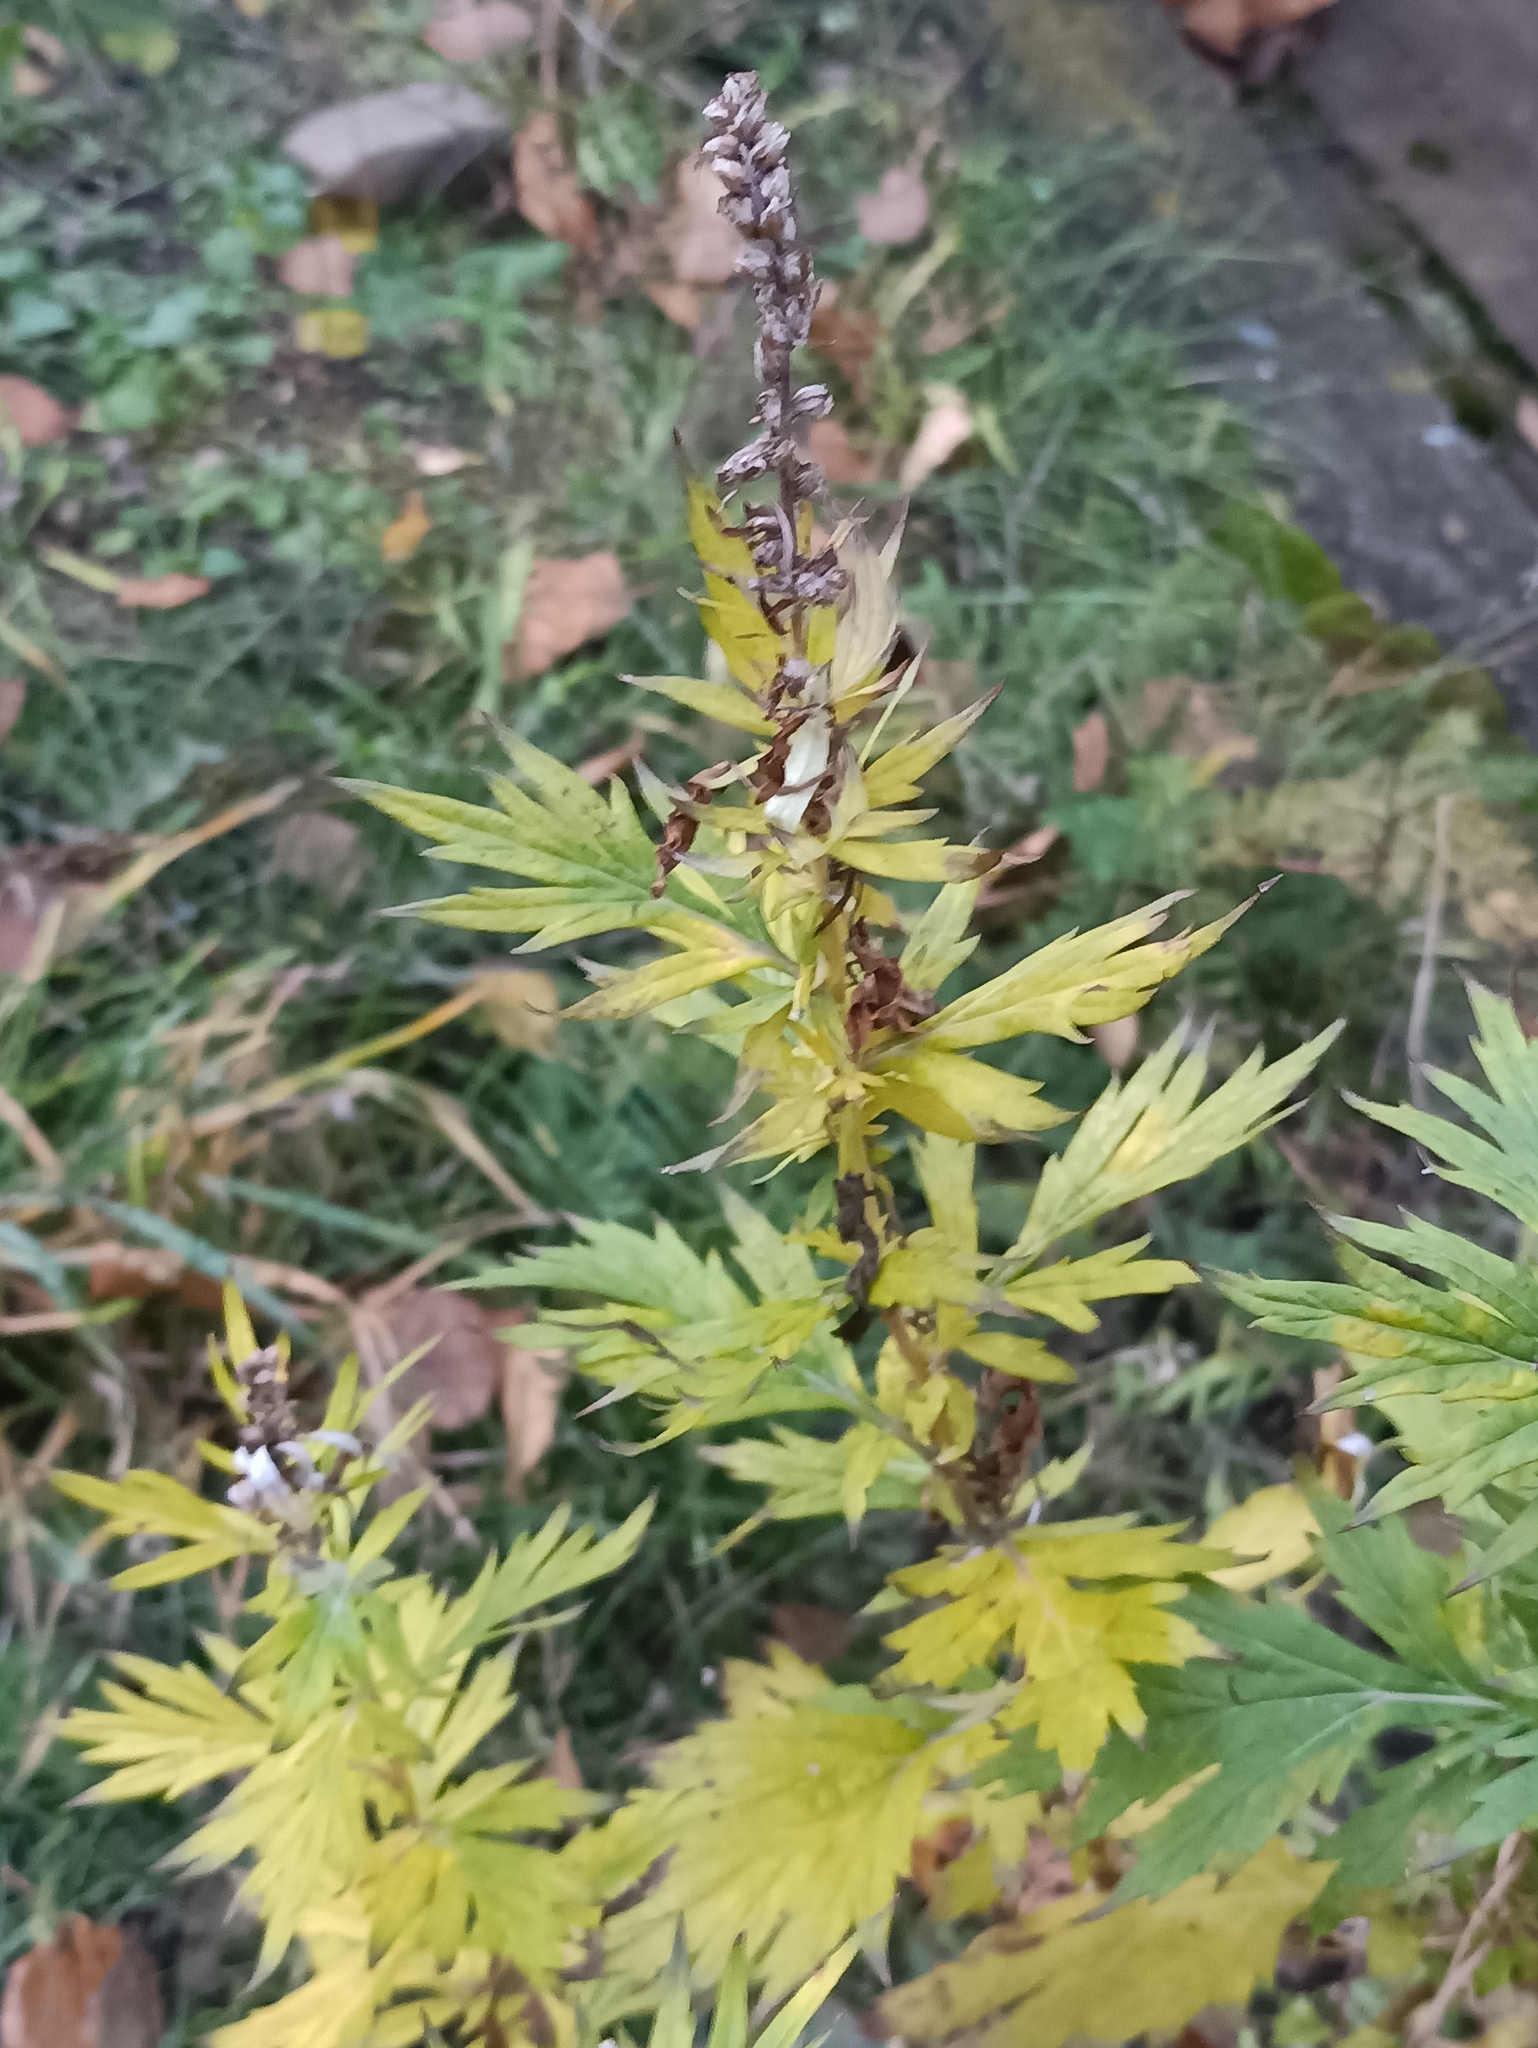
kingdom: Plantae
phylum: Tracheophyta
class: Magnoliopsida
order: Asterales
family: Asteraceae
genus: Artemisia
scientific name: Artemisia vulgaris
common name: Mugwort
